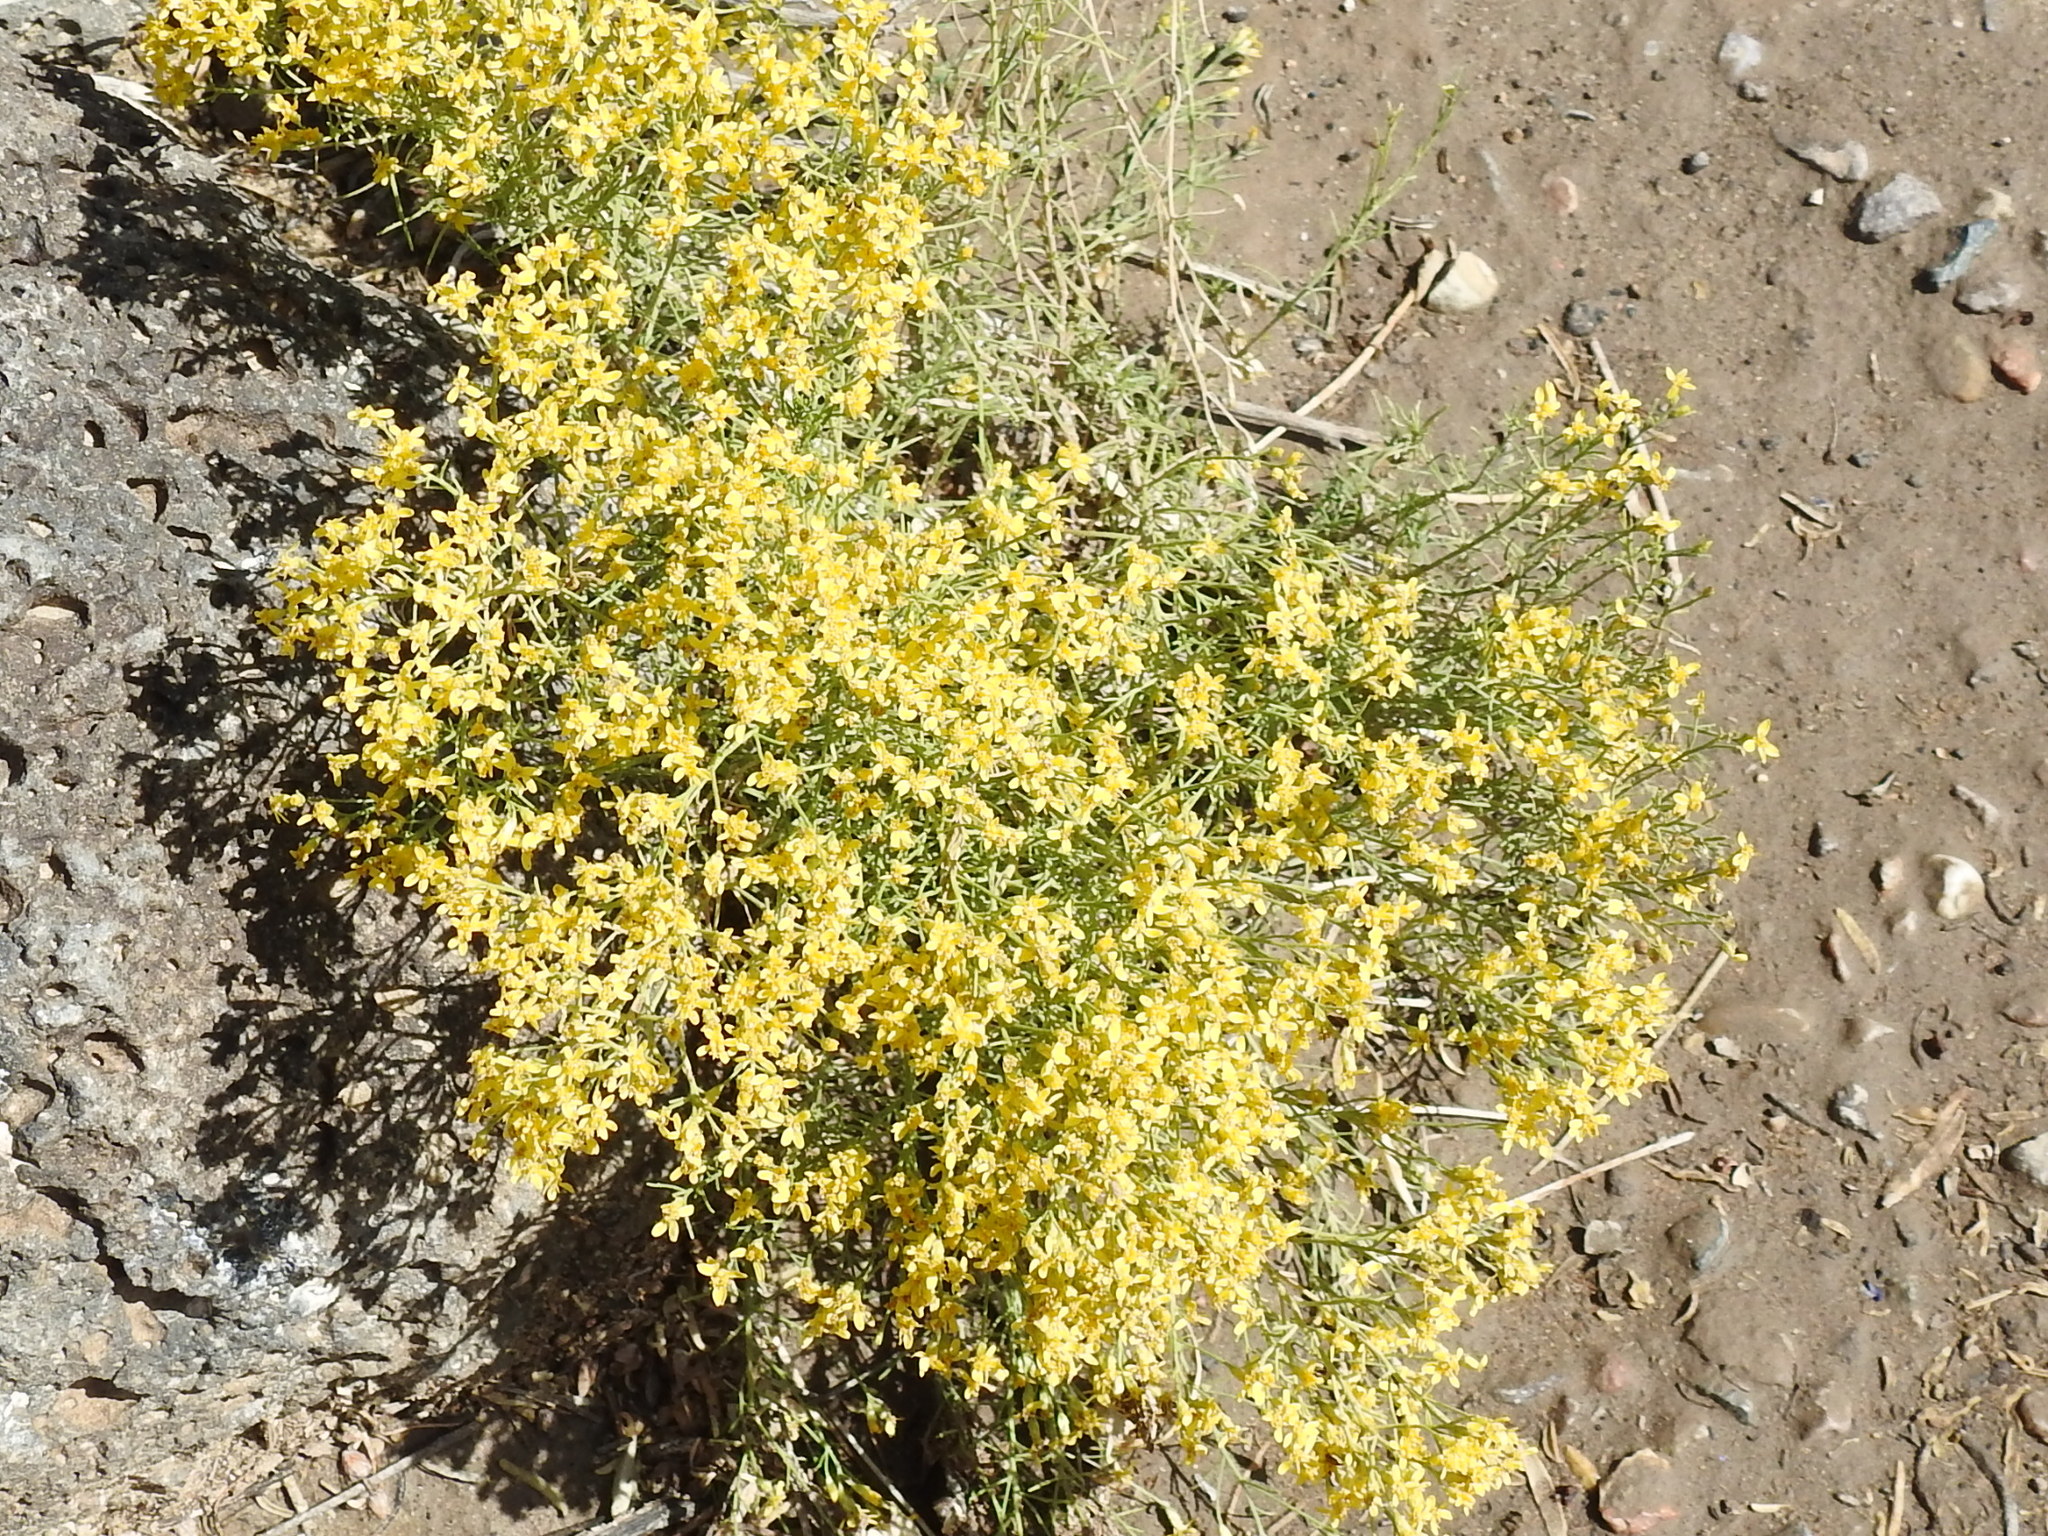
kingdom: Plantae
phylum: Tracheophyta
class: Magnoliopsida
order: Asterales
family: Asteraceae
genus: Gutierrezia
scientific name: Gutierrezia sarothrae
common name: Broom snakeweed
